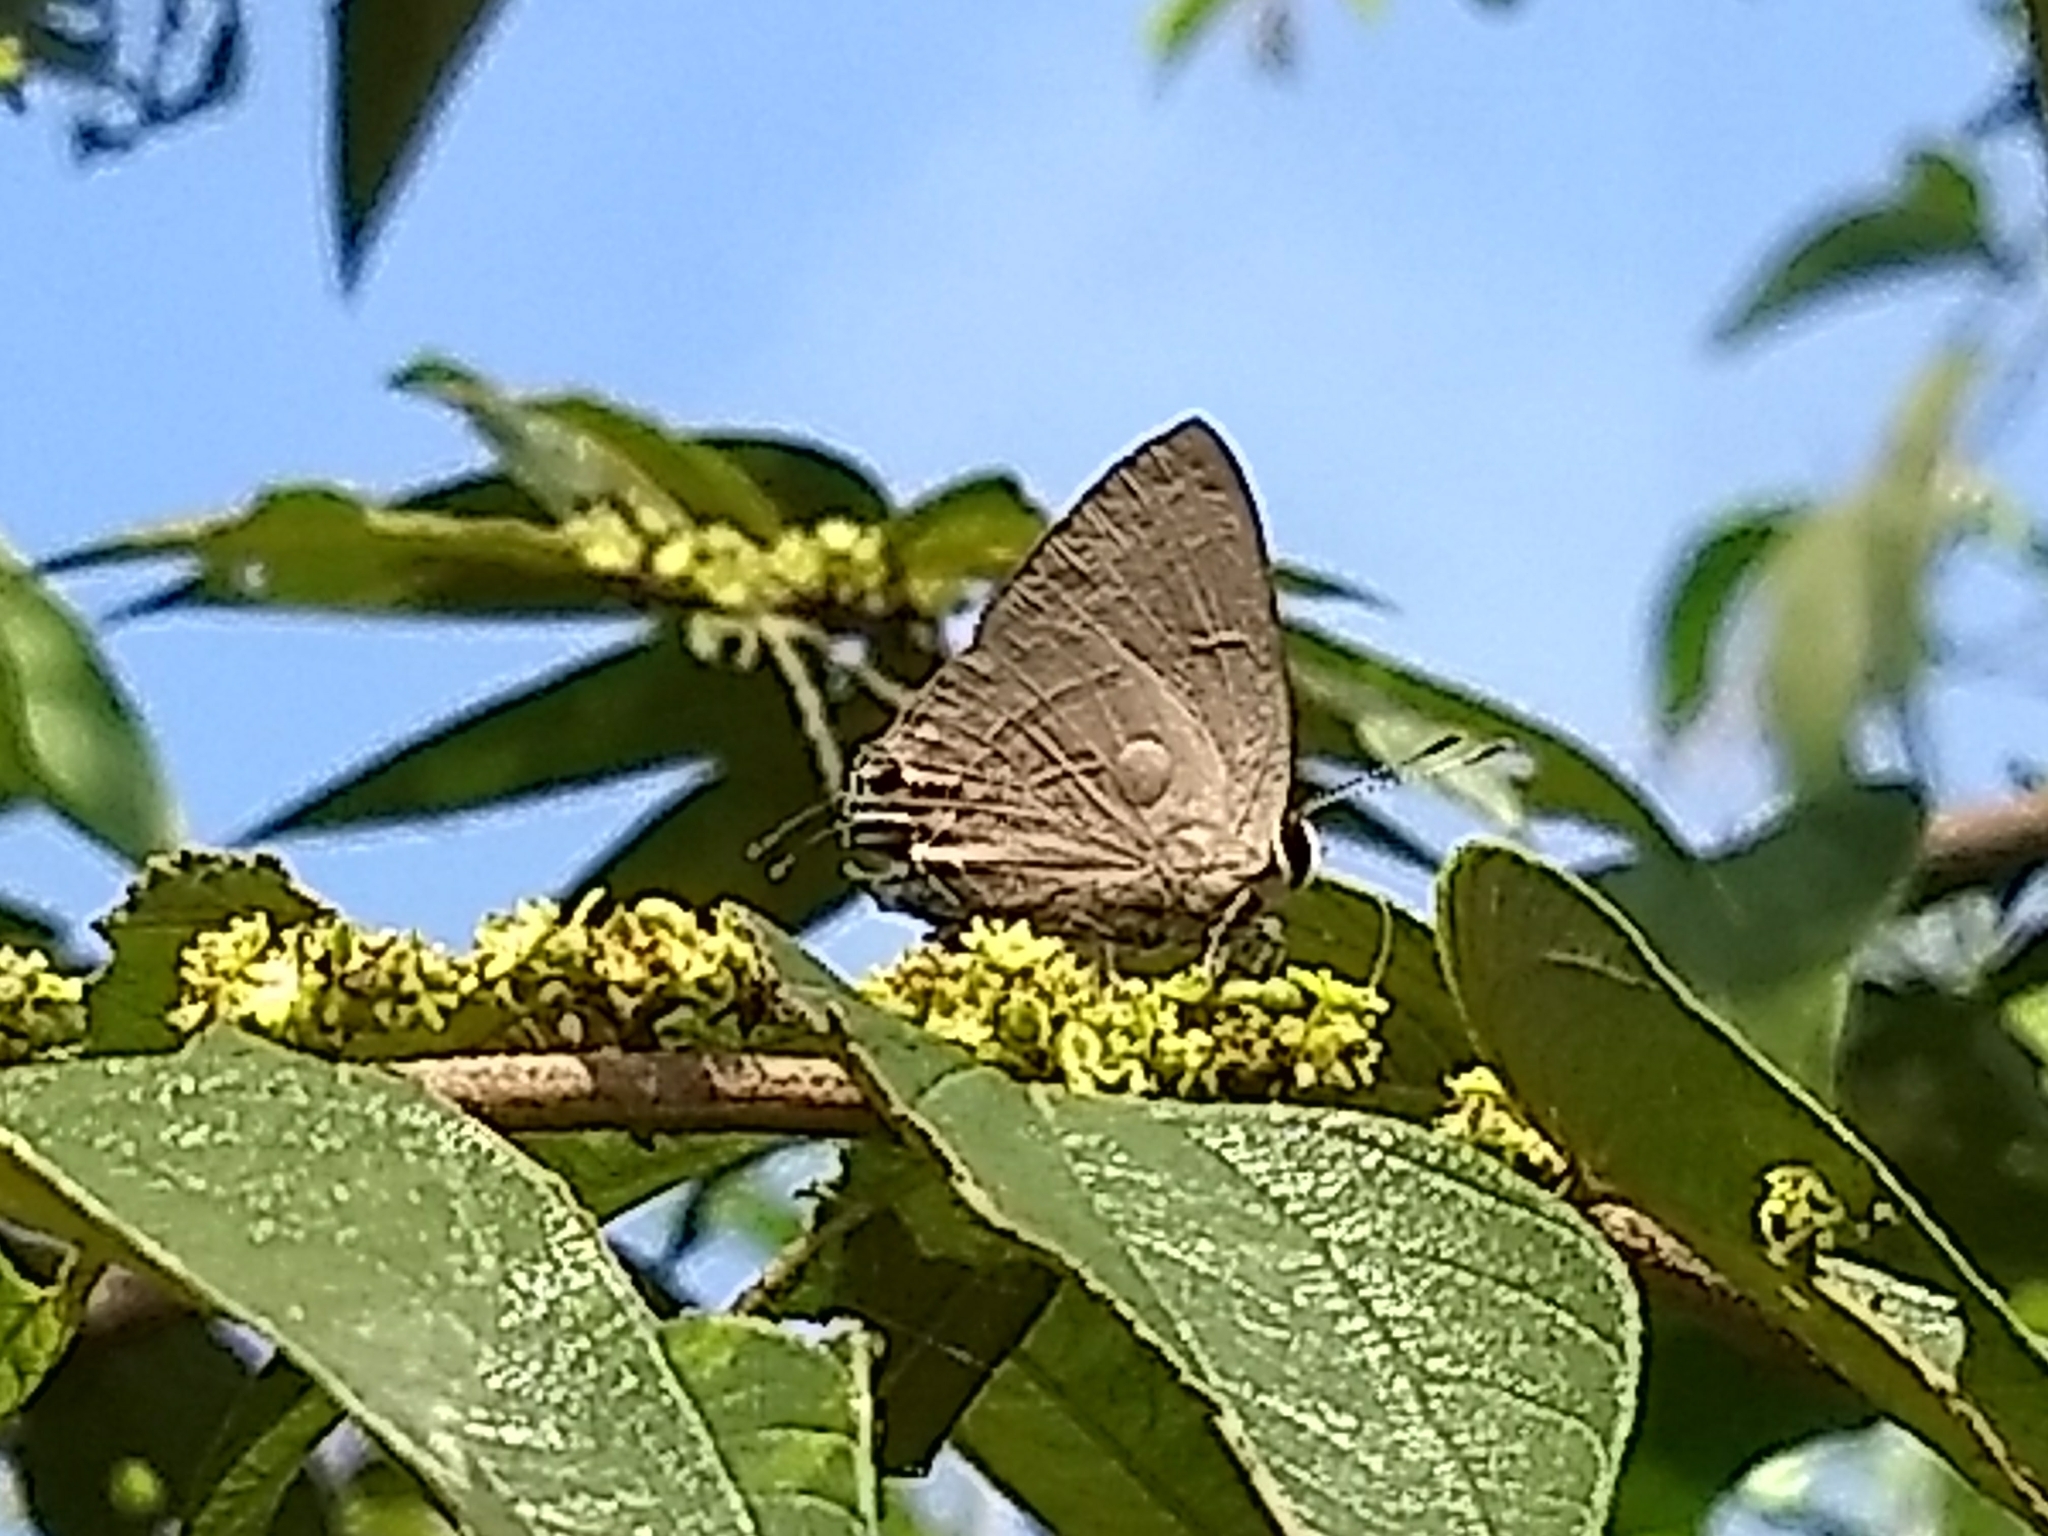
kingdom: Animalia
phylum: Arthropoda
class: Insecta
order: Lepidoptera
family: Lycaenidae
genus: Rapala
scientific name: Rapala manea
